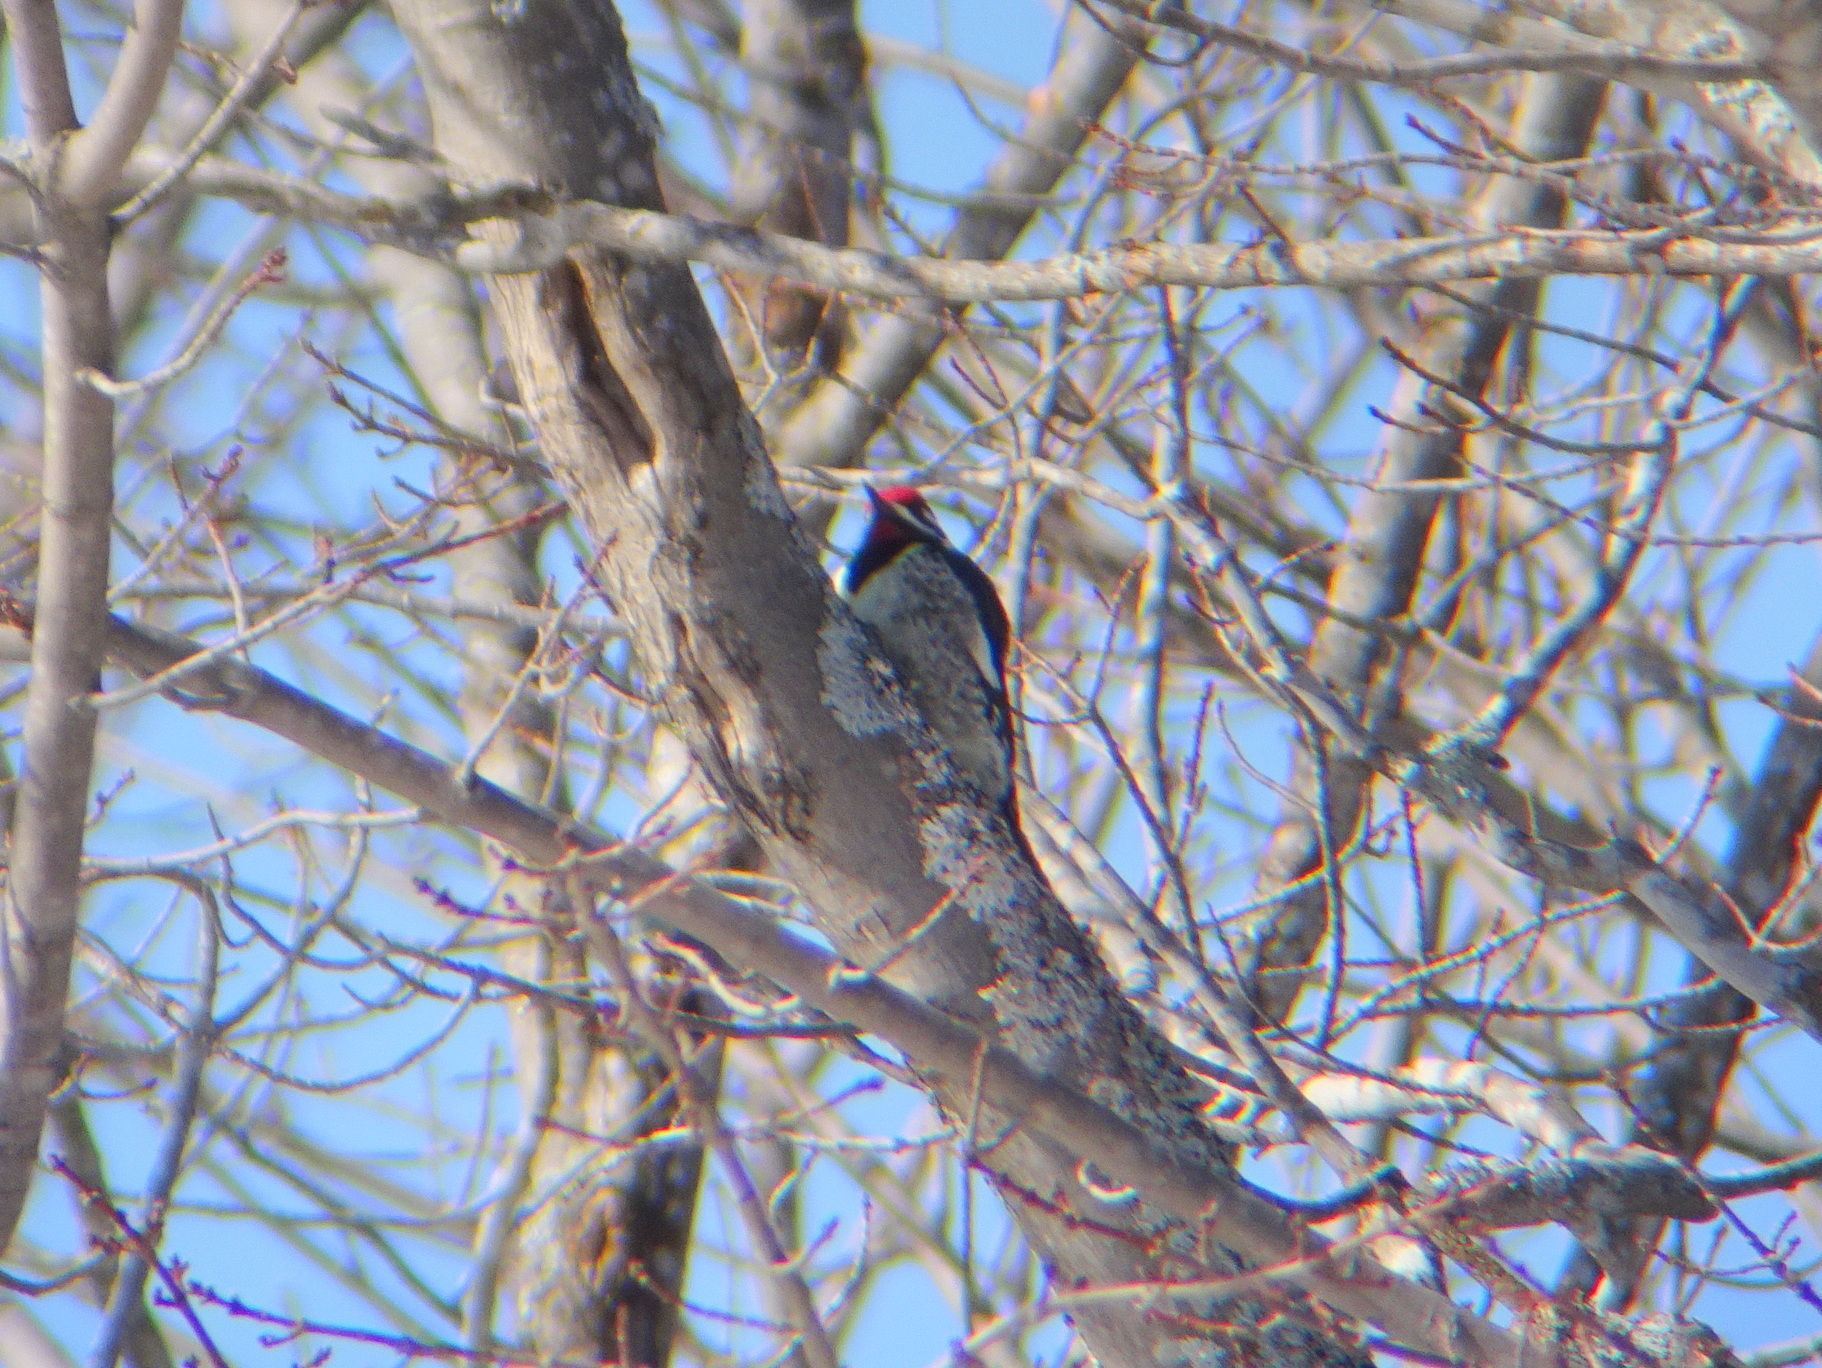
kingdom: Animalia
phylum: Chordata
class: Aves
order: Piciformes
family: Picidae
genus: Sphyrapicus
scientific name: Sphyrapicus varius
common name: Yellow-bellied sapsucker
